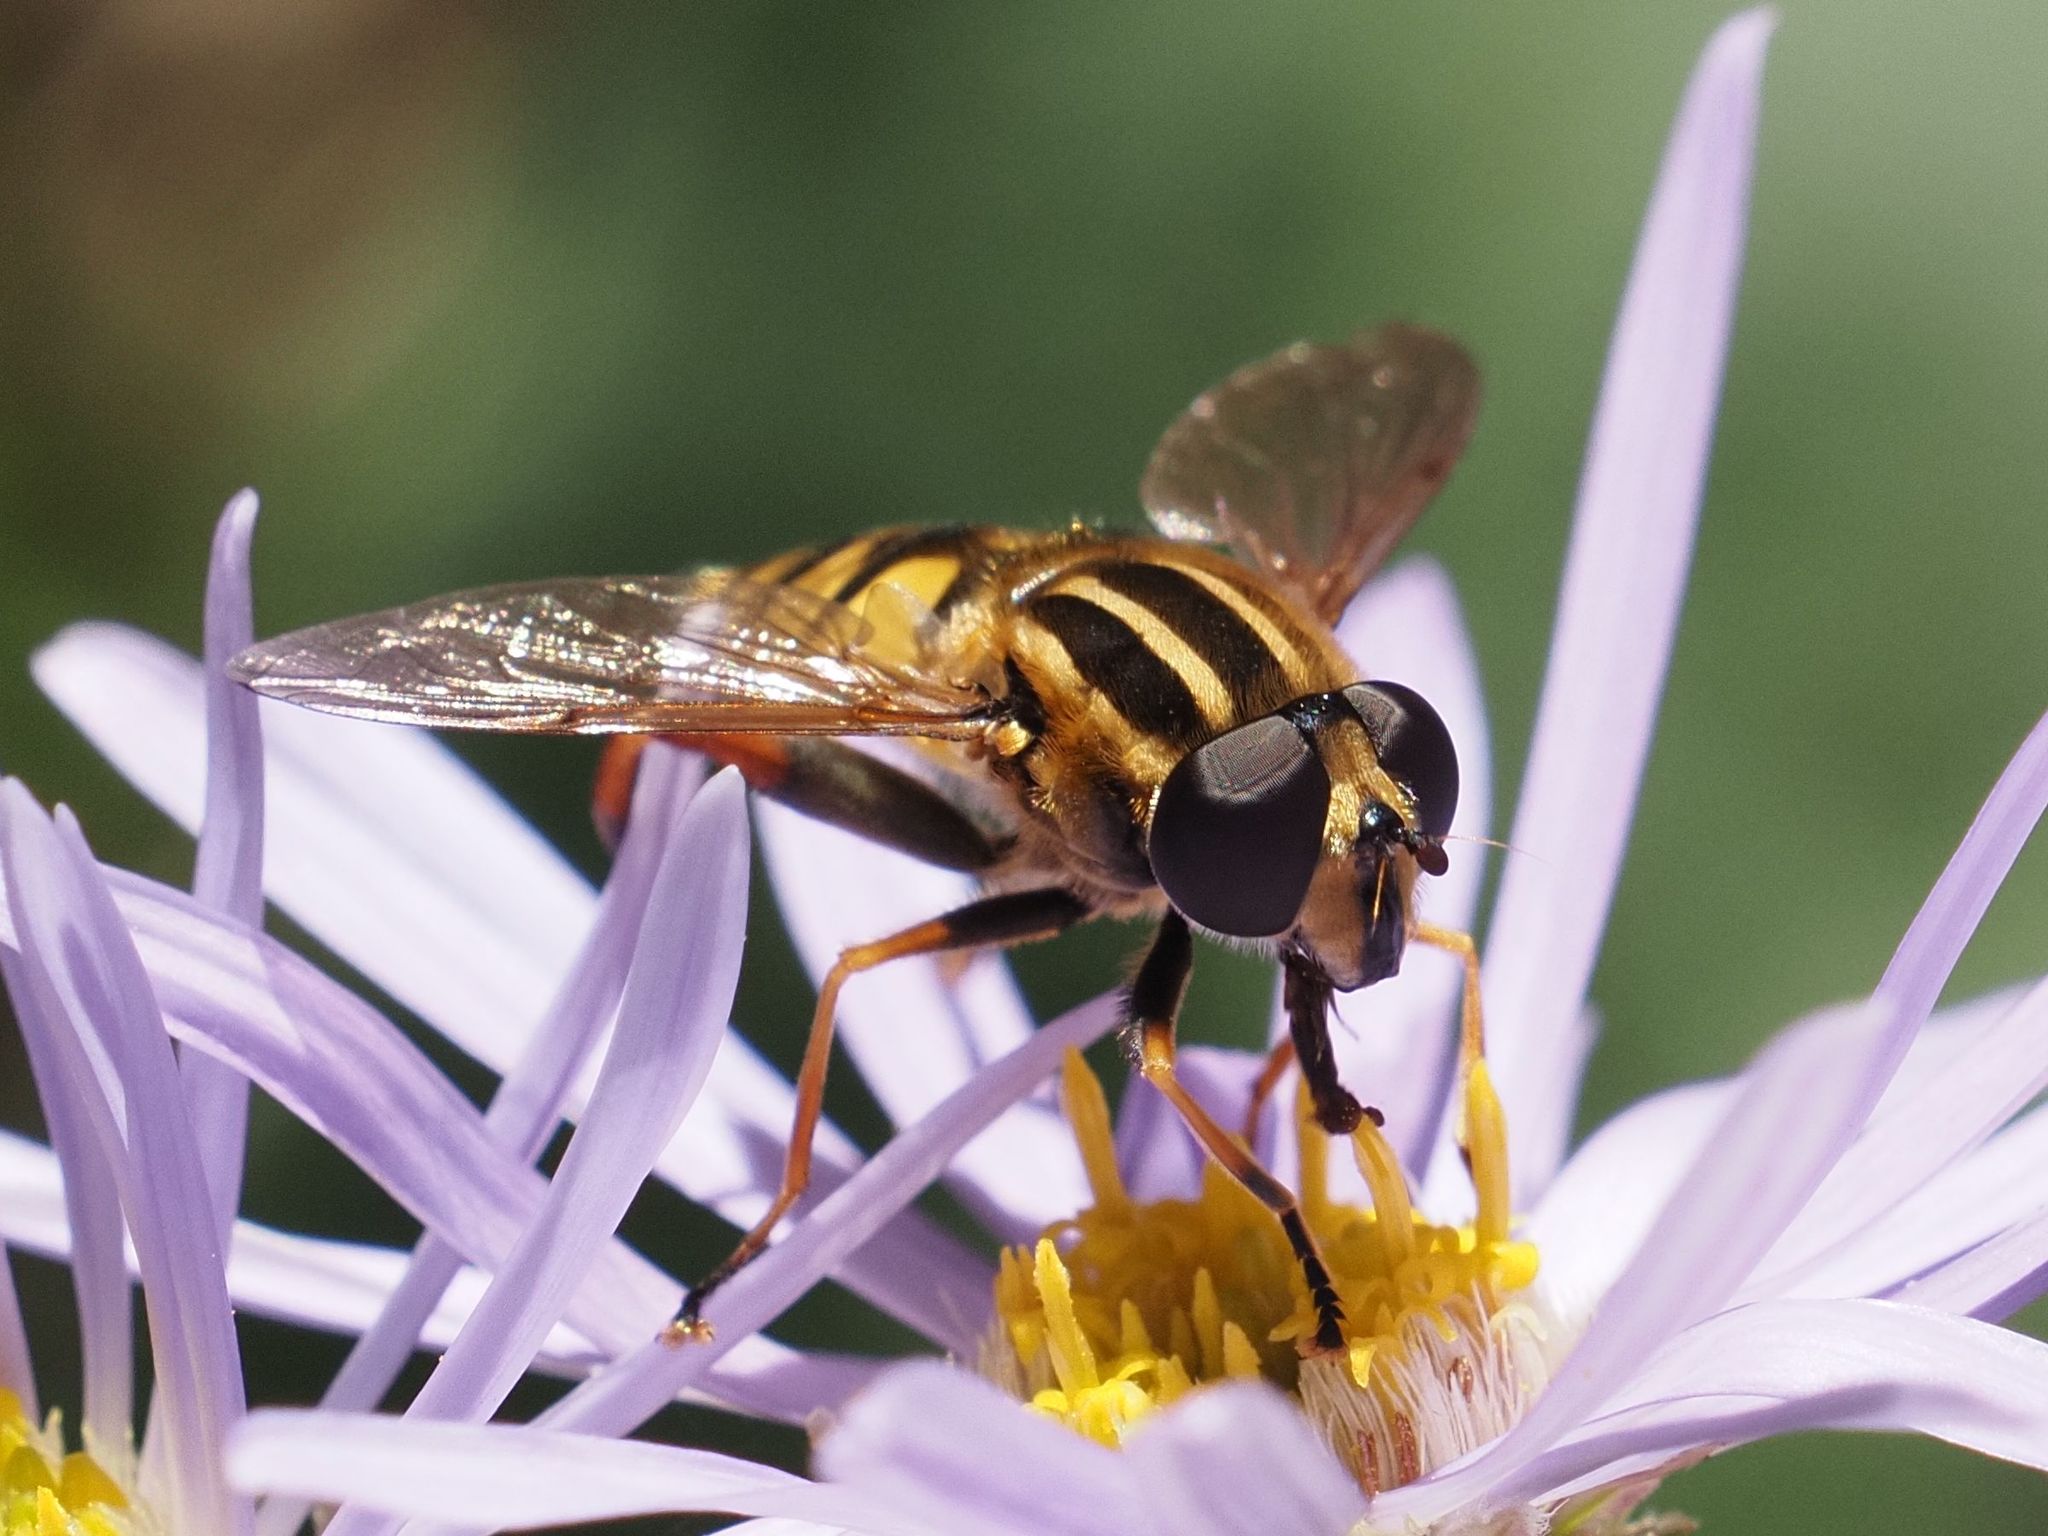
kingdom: Animalia
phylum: Arthropoda
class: Insecta
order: Diptera
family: Syrphidae
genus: Helophilus
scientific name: Helophilus pendulus
